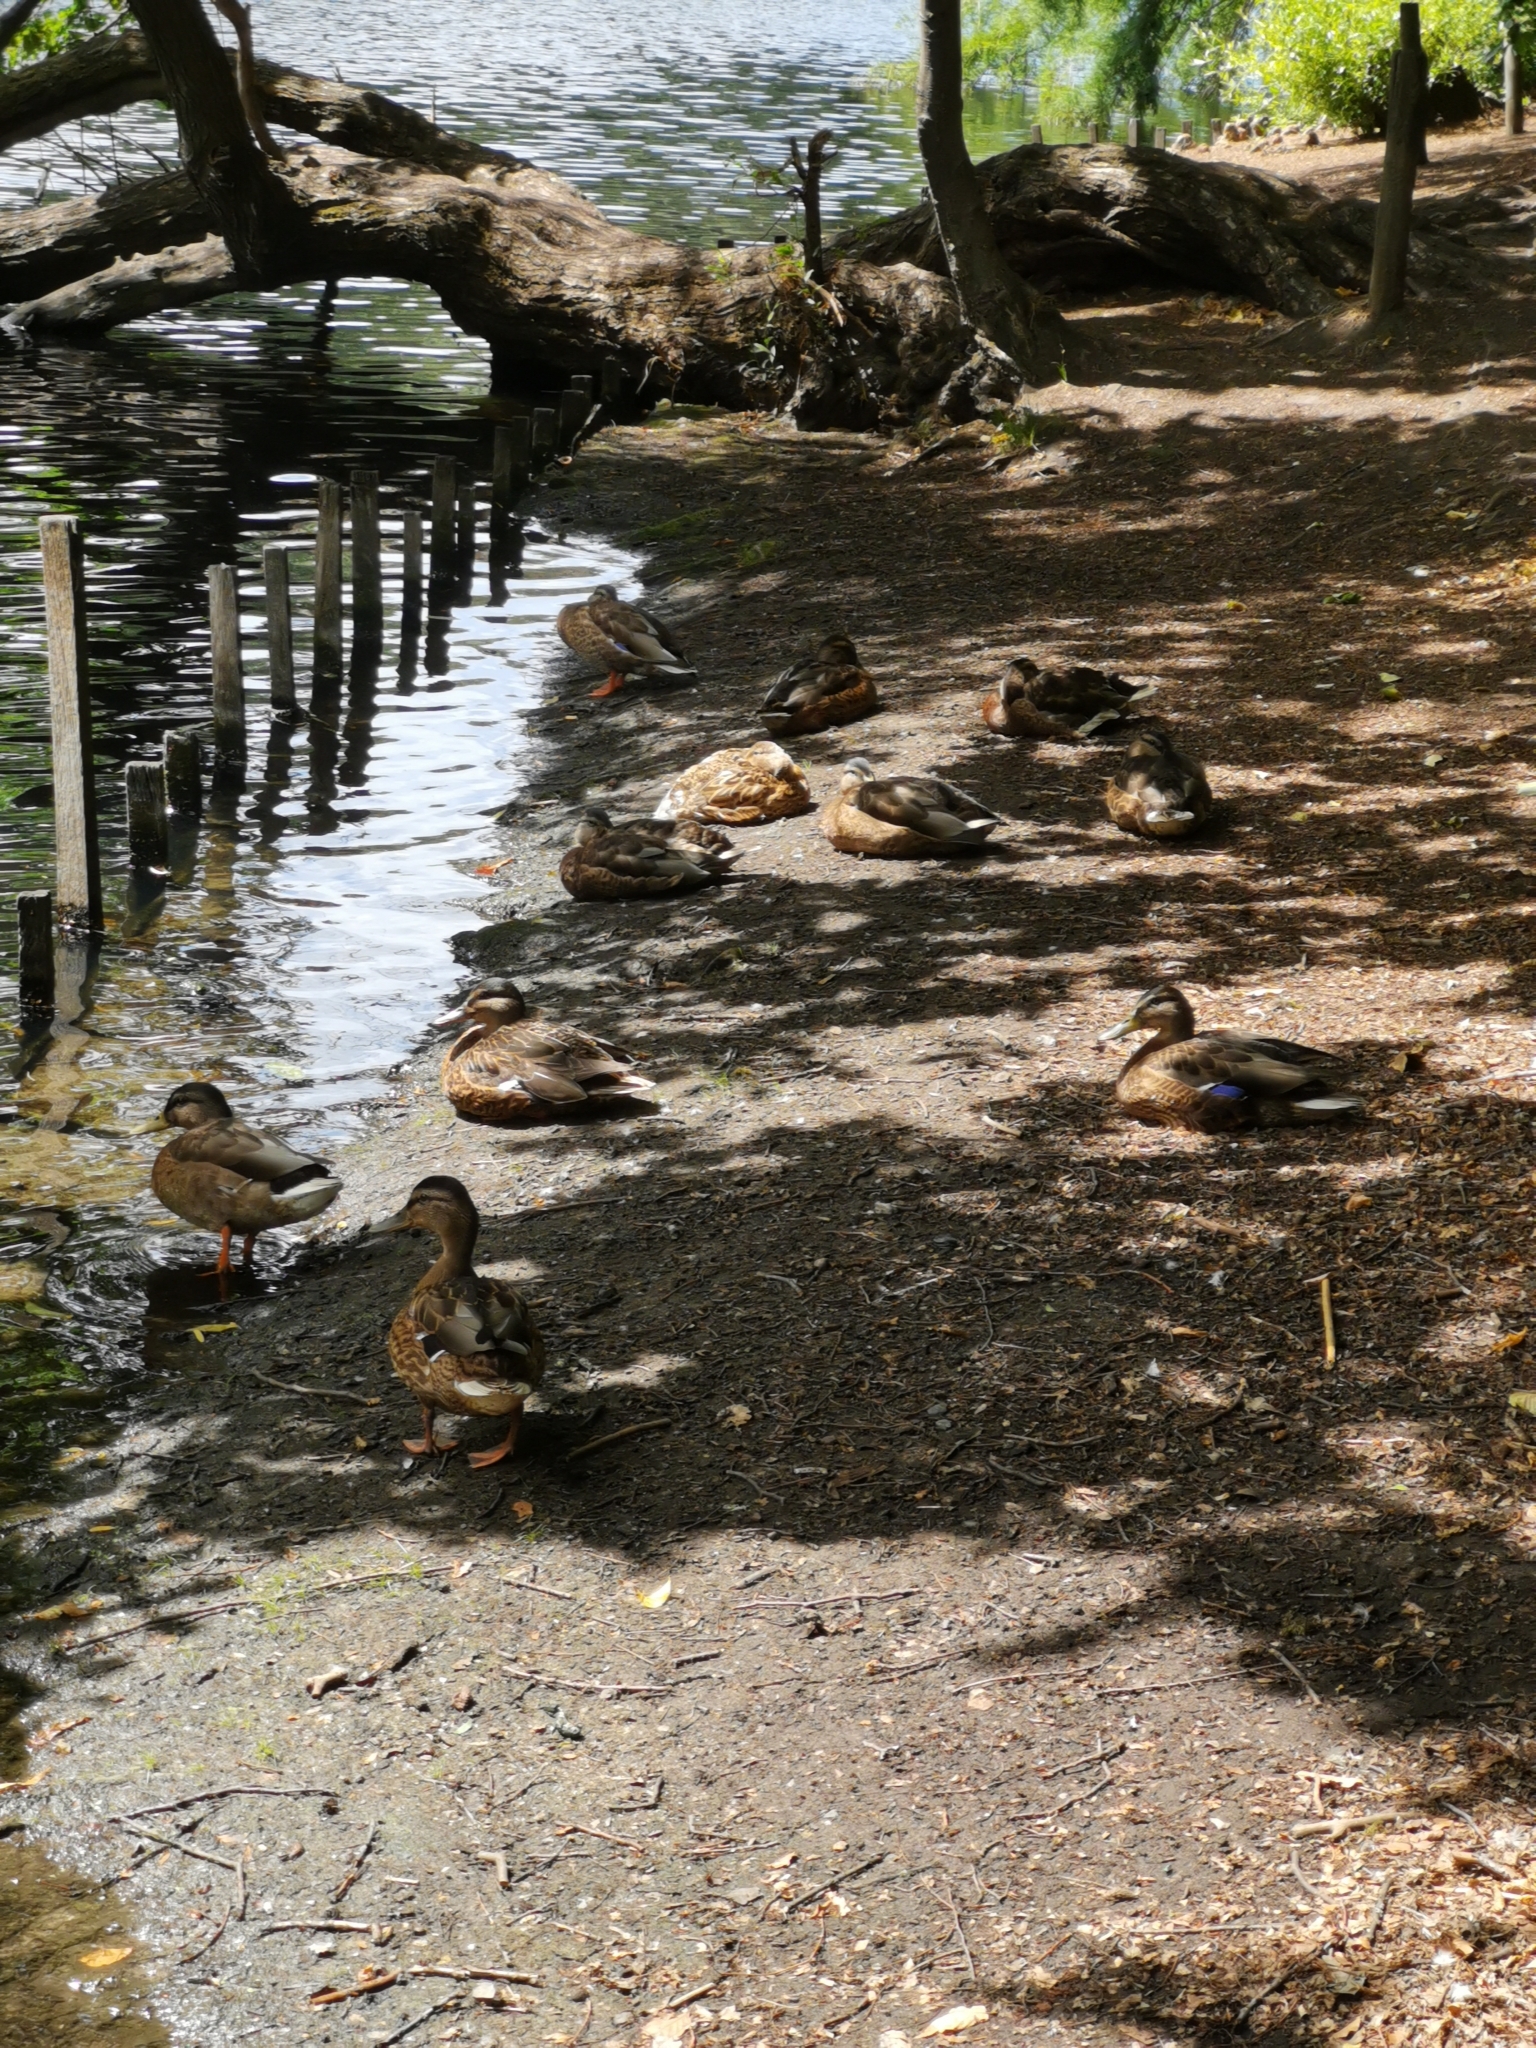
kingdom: Animalia
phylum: Chordata
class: Aves
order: Anseriformes
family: Anatidae
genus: Anas
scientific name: Anas platyrhynchos
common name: Mallard
